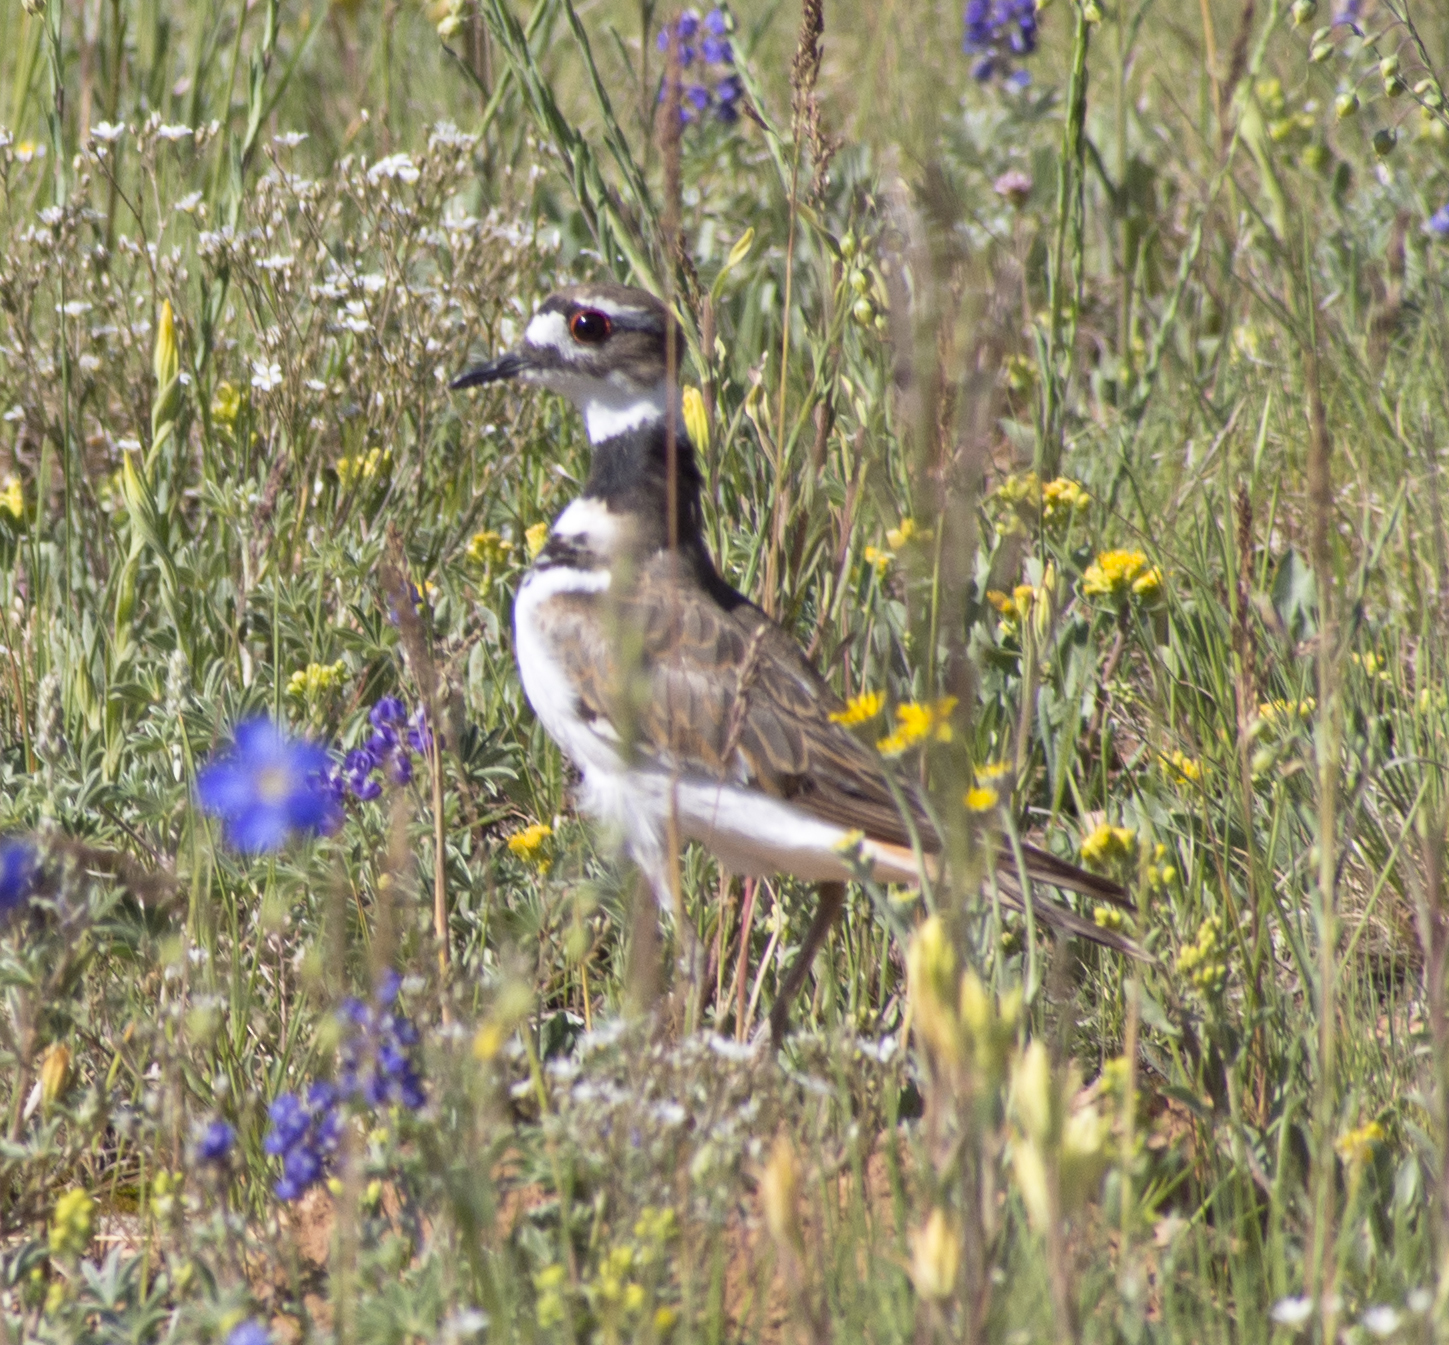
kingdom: Animalia
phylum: Chordata
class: Aves
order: Charadriiformes
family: Charadriidae
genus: Charadrius
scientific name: Charadrius vociferus
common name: Killdeer
